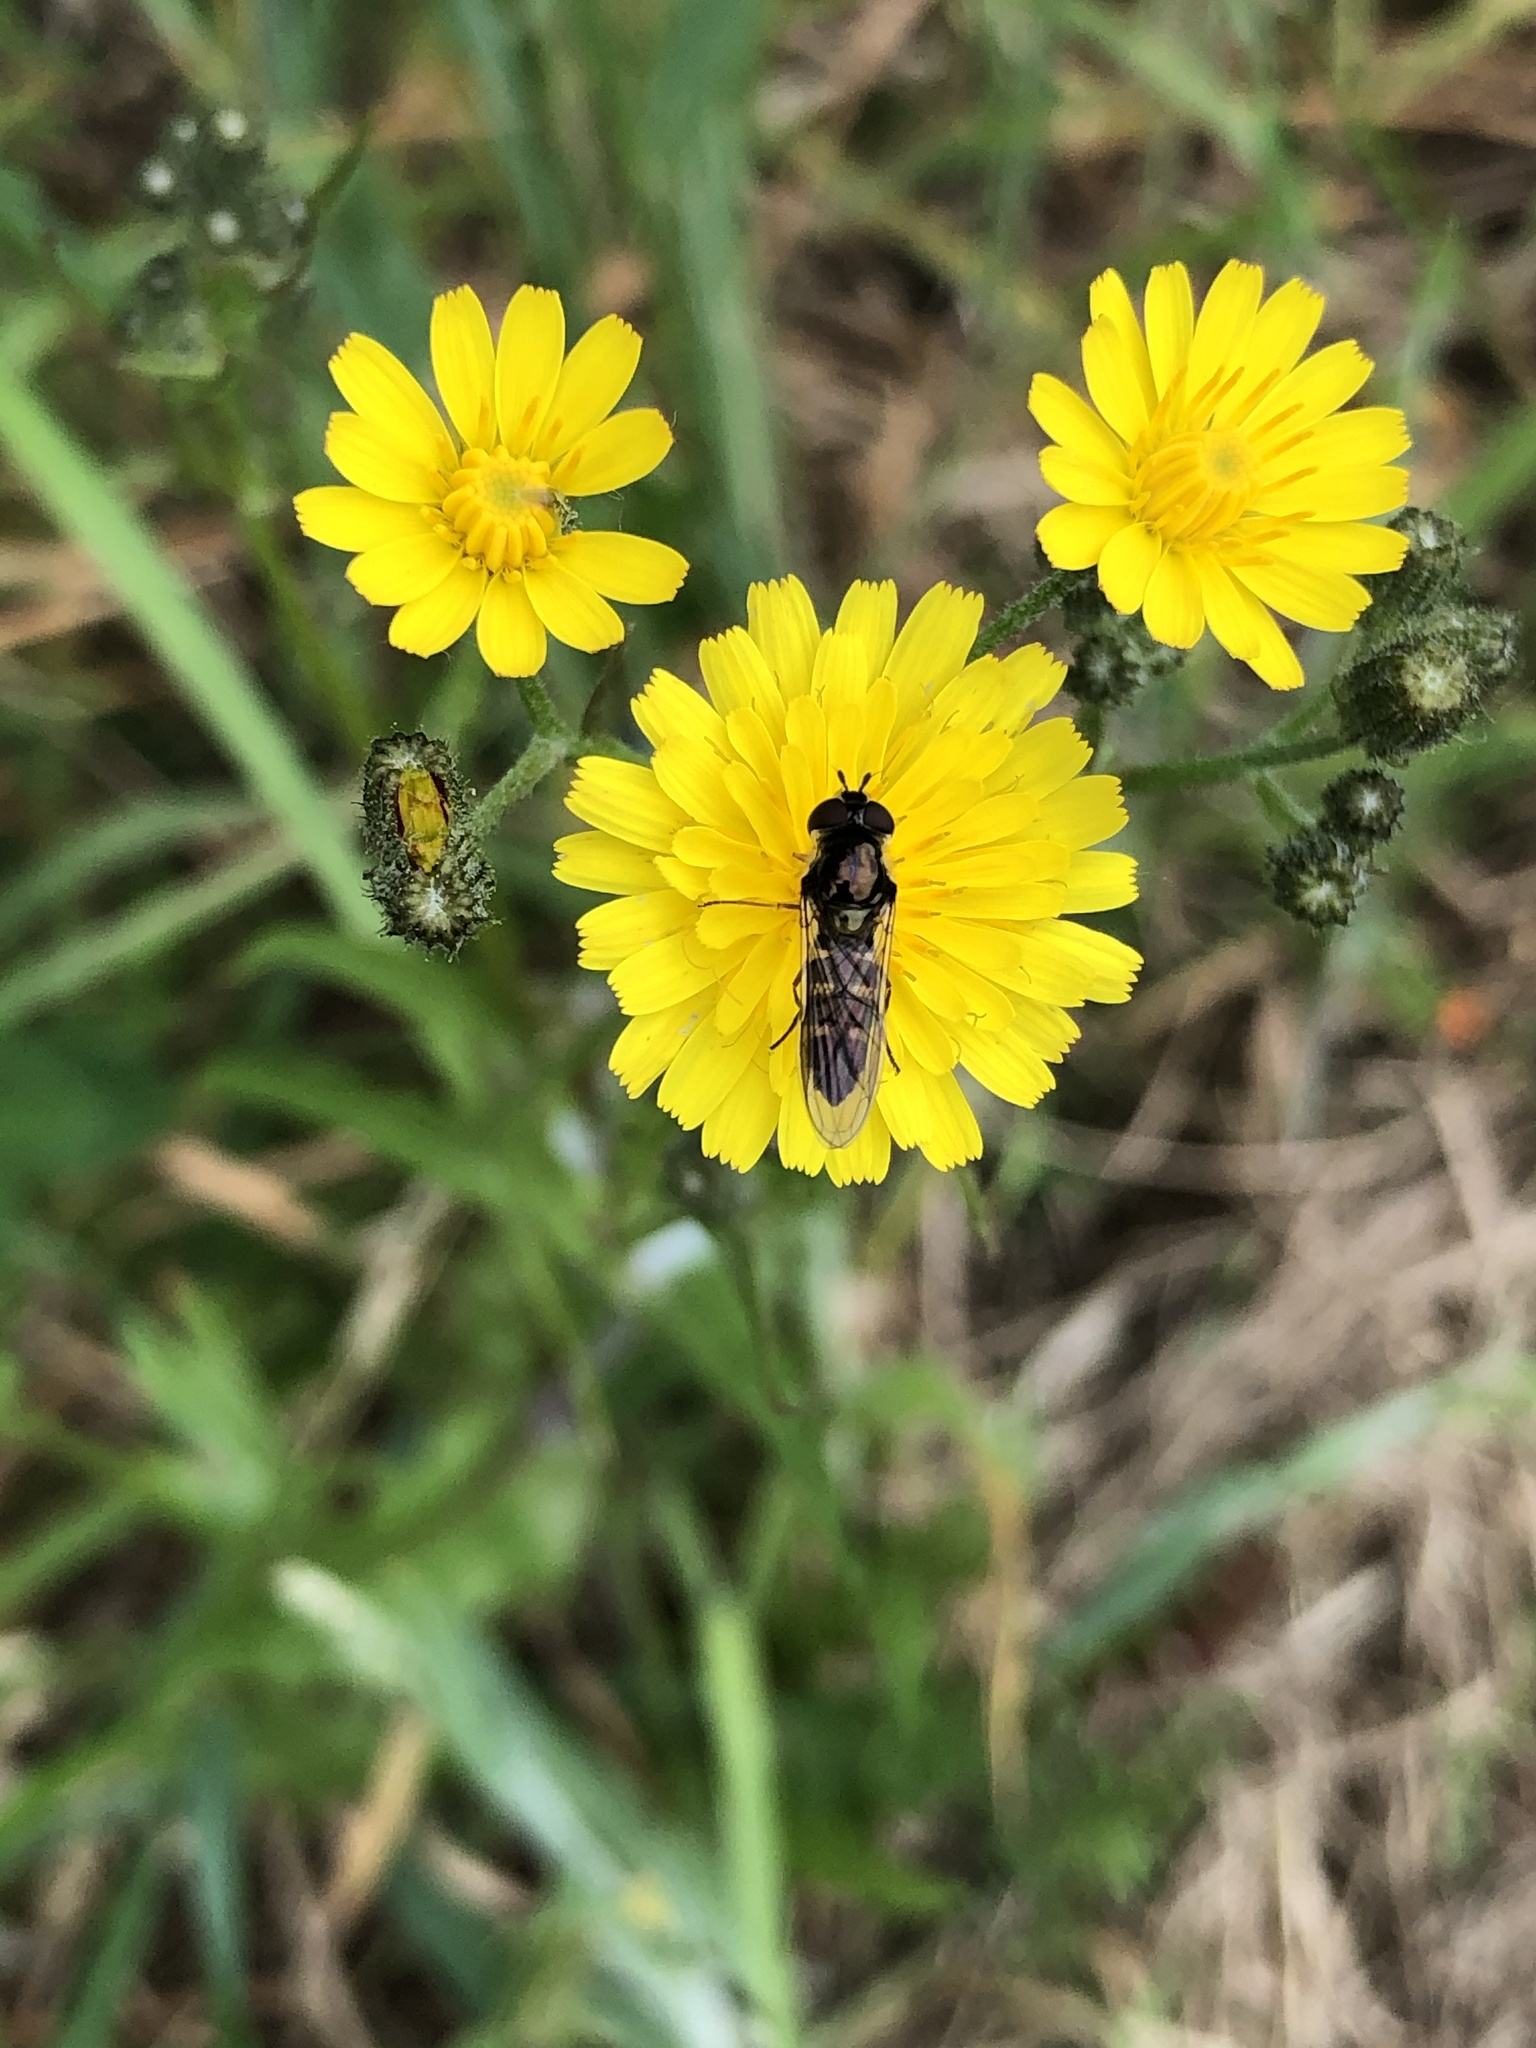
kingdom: Animalia
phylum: Arthropoda
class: Insecta
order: Diptera
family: Syrphidae
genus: Melangyna
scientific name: Melangyna novaezelandiae
